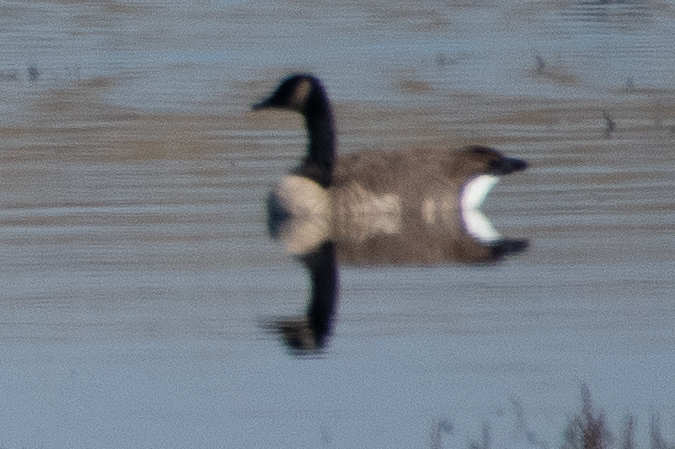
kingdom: Animalia
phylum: Chordata
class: Aves
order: Anseriformes
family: Anatidae
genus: Branta
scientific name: Branta canadensis
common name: Canada goose
